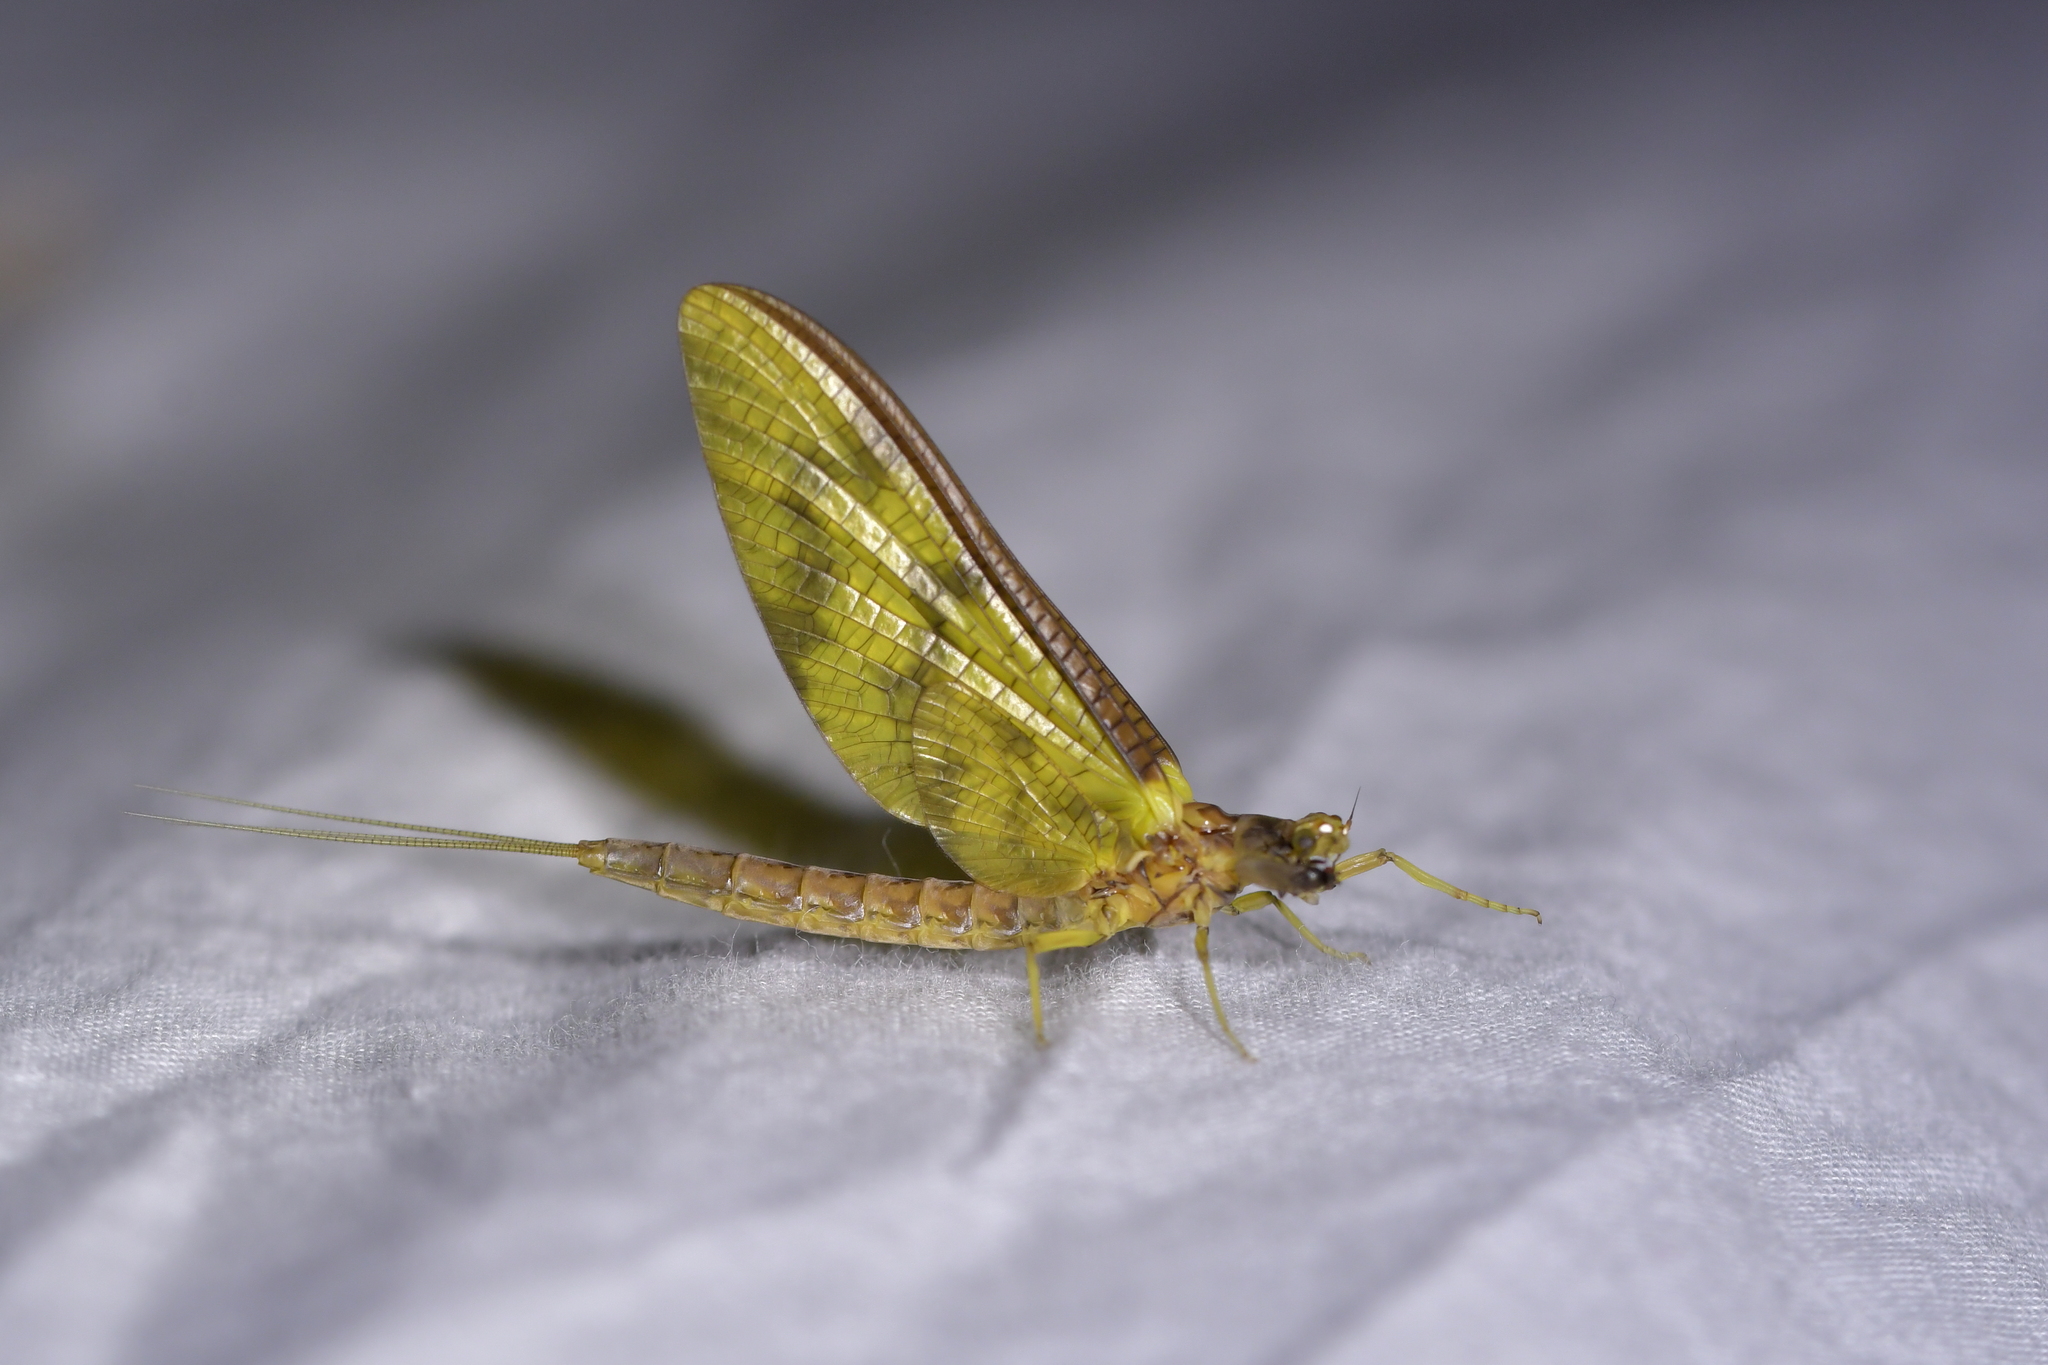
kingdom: Animalia
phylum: Arthropoda
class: Insecta
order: Ephemeroptera
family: Ichthybotidae
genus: Ichthybotus
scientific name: Ichthybotus hudsoni
